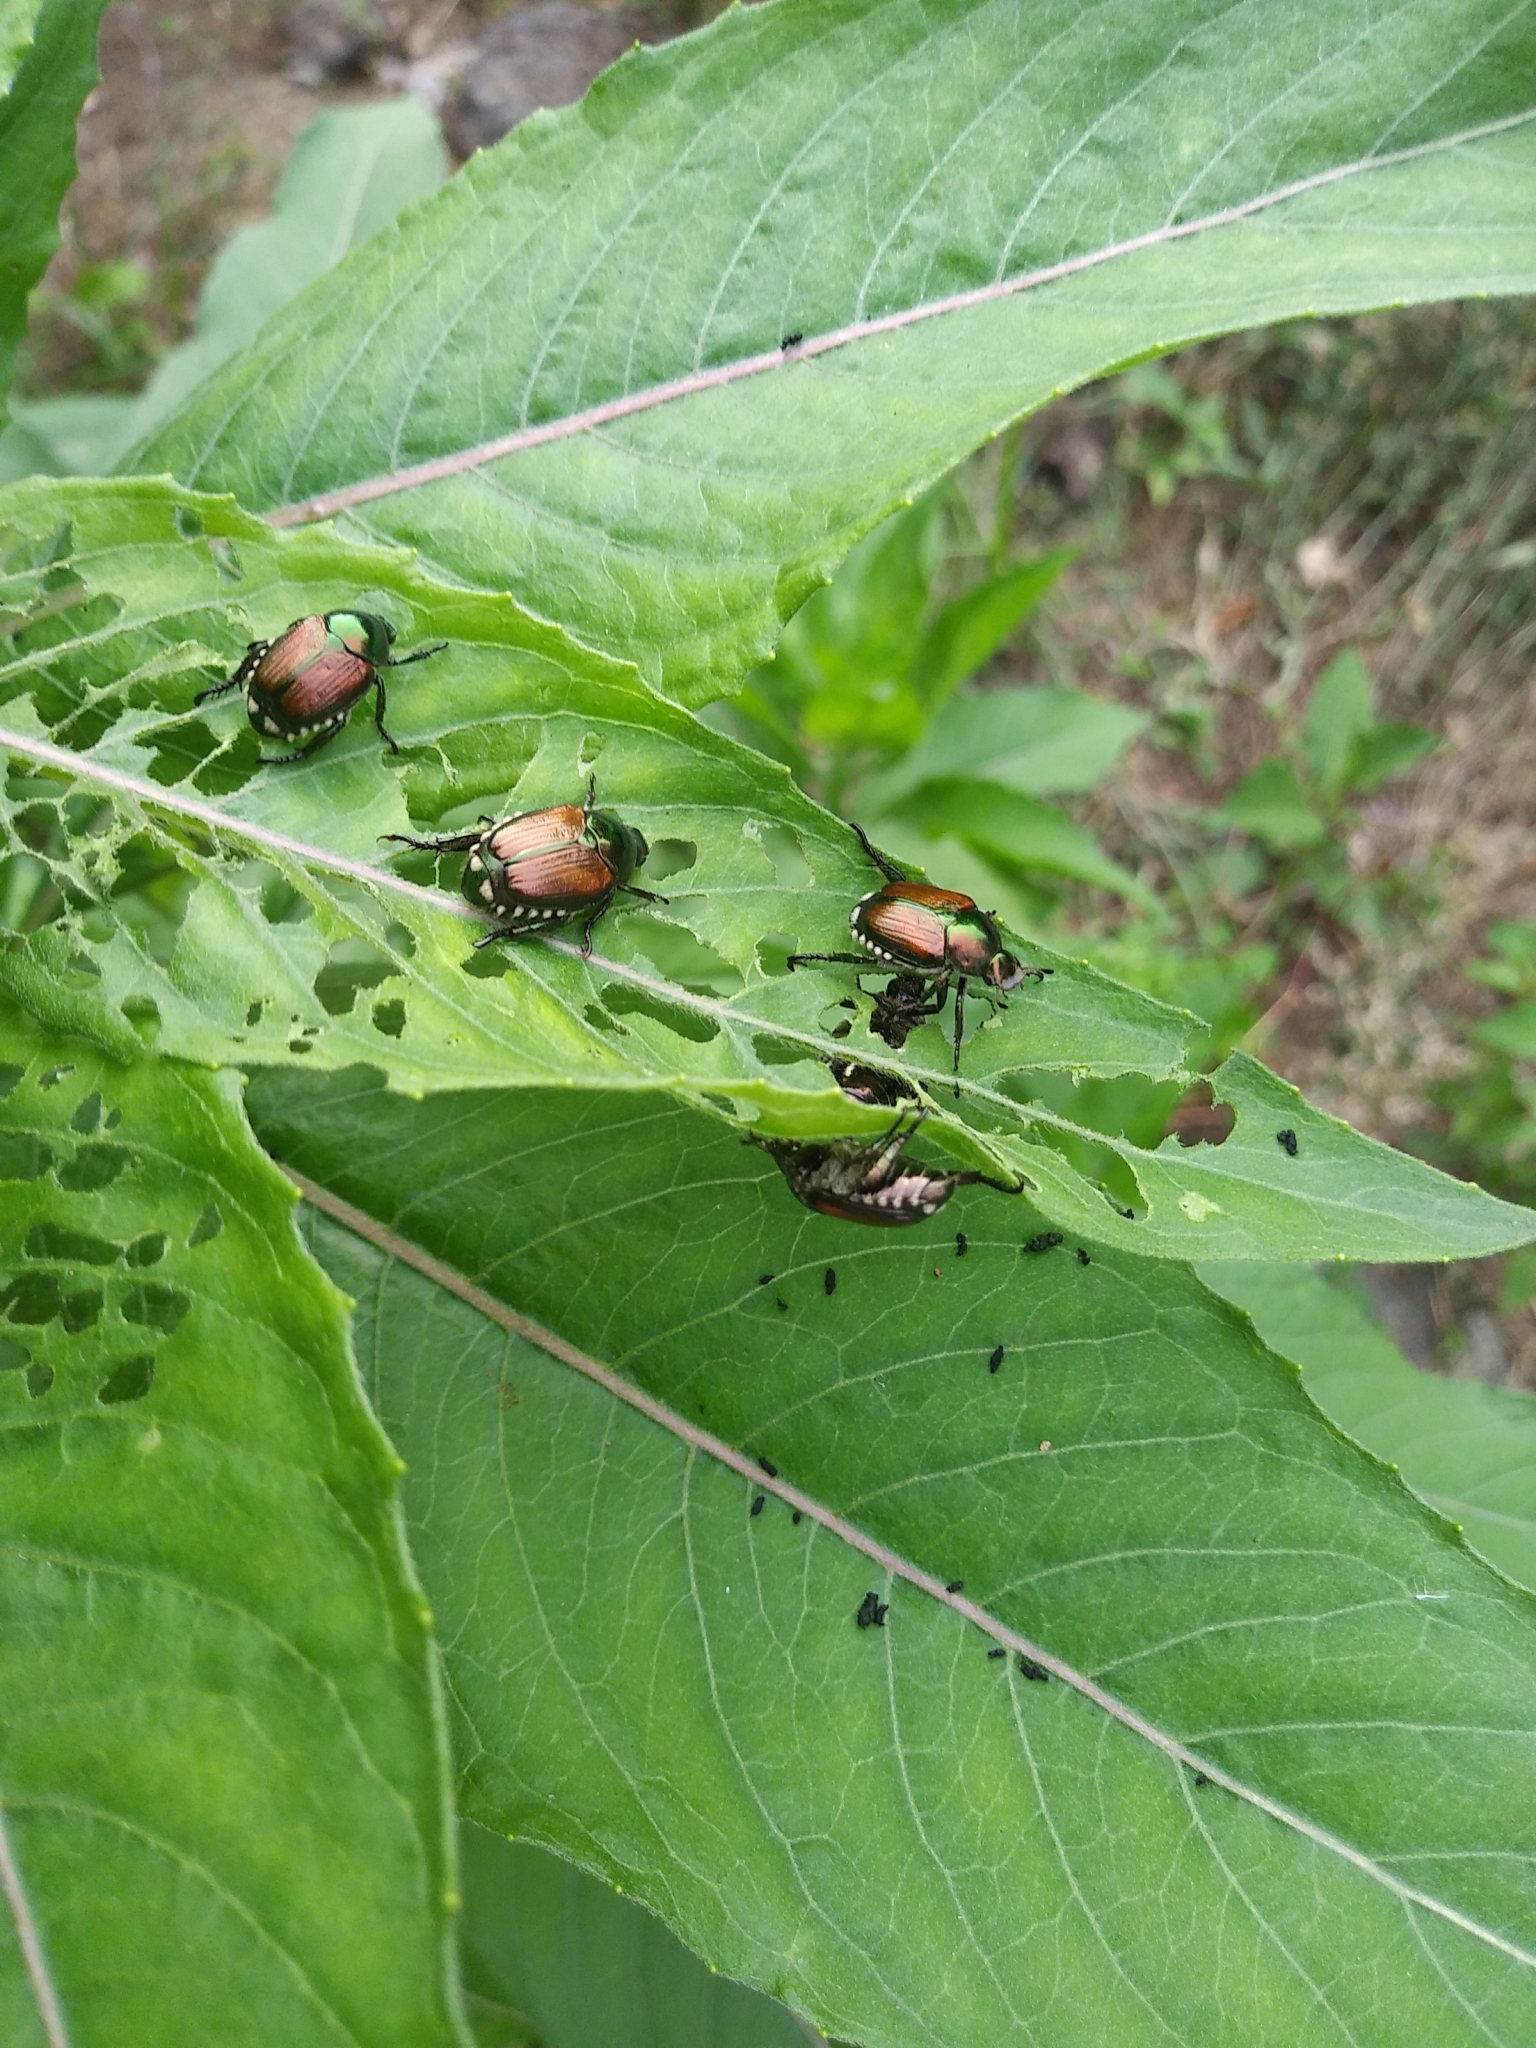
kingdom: Animalia
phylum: Arthropoda
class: Insecta
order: Coleoptera
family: Scarabaeidae
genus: Popillia
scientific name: Popillia japonica
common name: Japanese beetle
